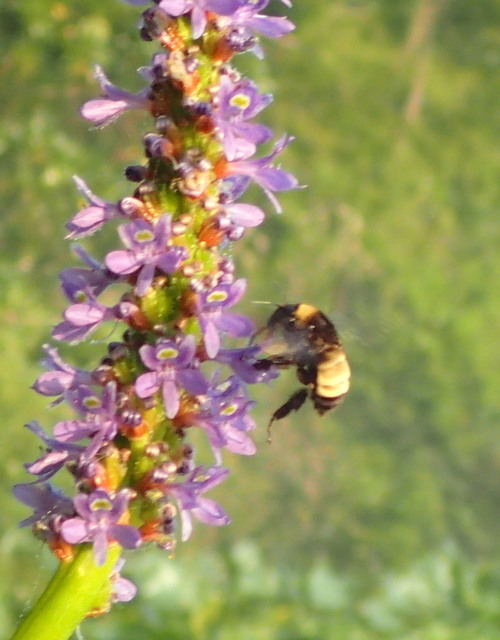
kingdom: Animalia
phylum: Arthropoda
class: Insecta
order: Hymenoptera
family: Apidae
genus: Bombus
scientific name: Bombus pensylvanicus
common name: Bumble bee
